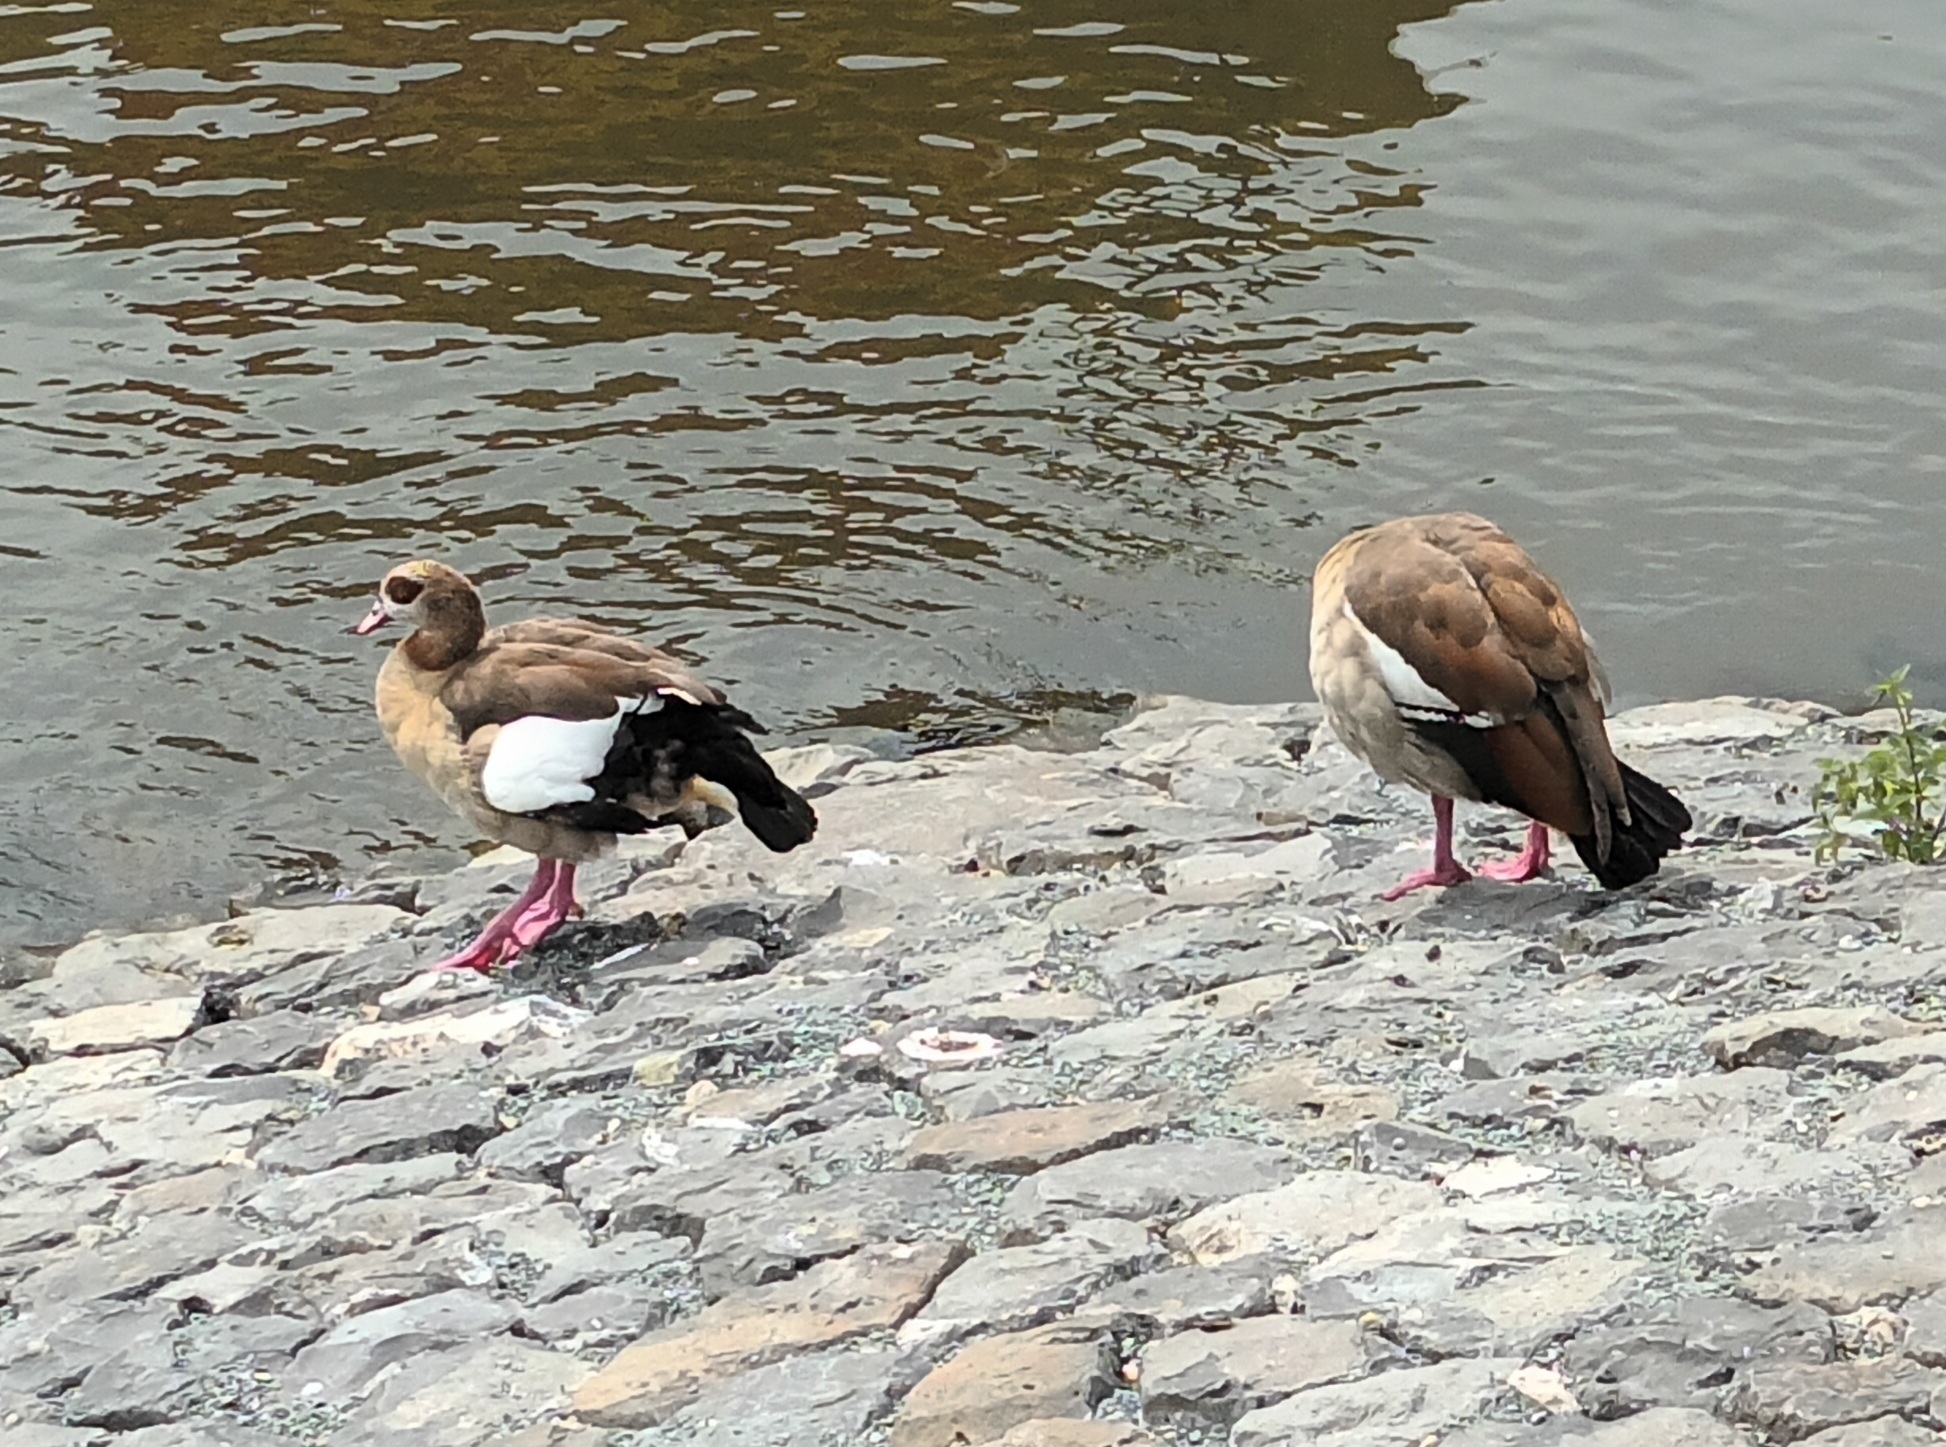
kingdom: Animalia
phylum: Chordata
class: Aves
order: Anseriformes
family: Anatidae
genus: Alopochen
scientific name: Alopochen aegyptiaca
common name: Egyptian goose
